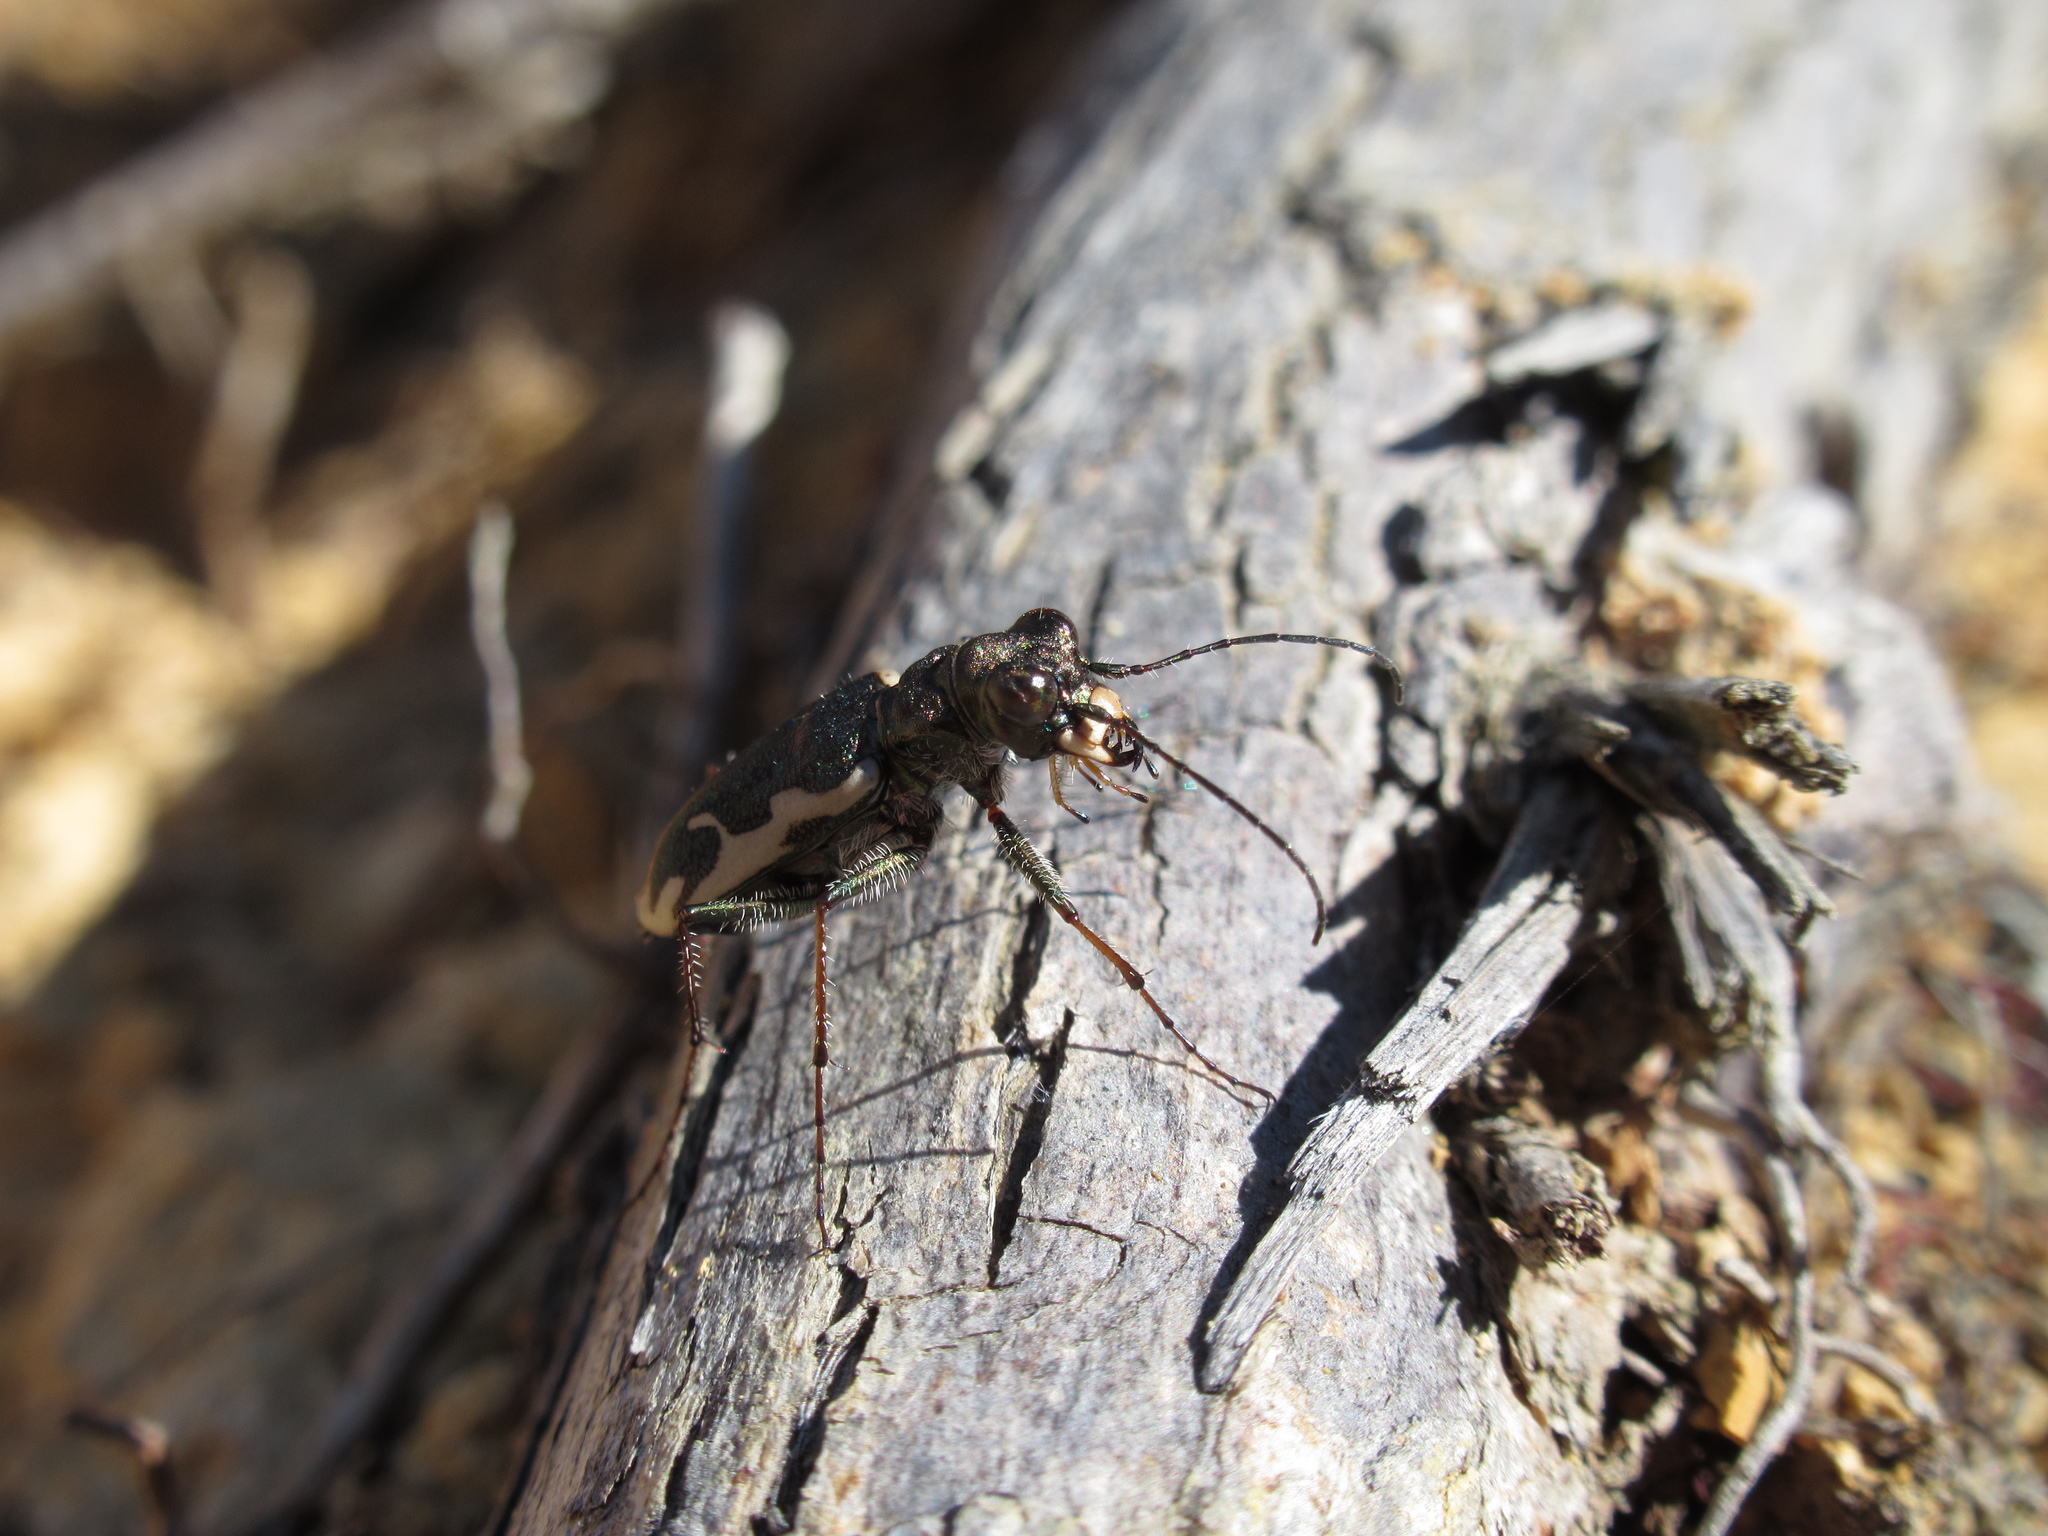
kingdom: Animalia
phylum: Arthropoda
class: Insecta
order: Coleoptera
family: Carabidae
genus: Neocicindela
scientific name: Neocicindela tuberculata
